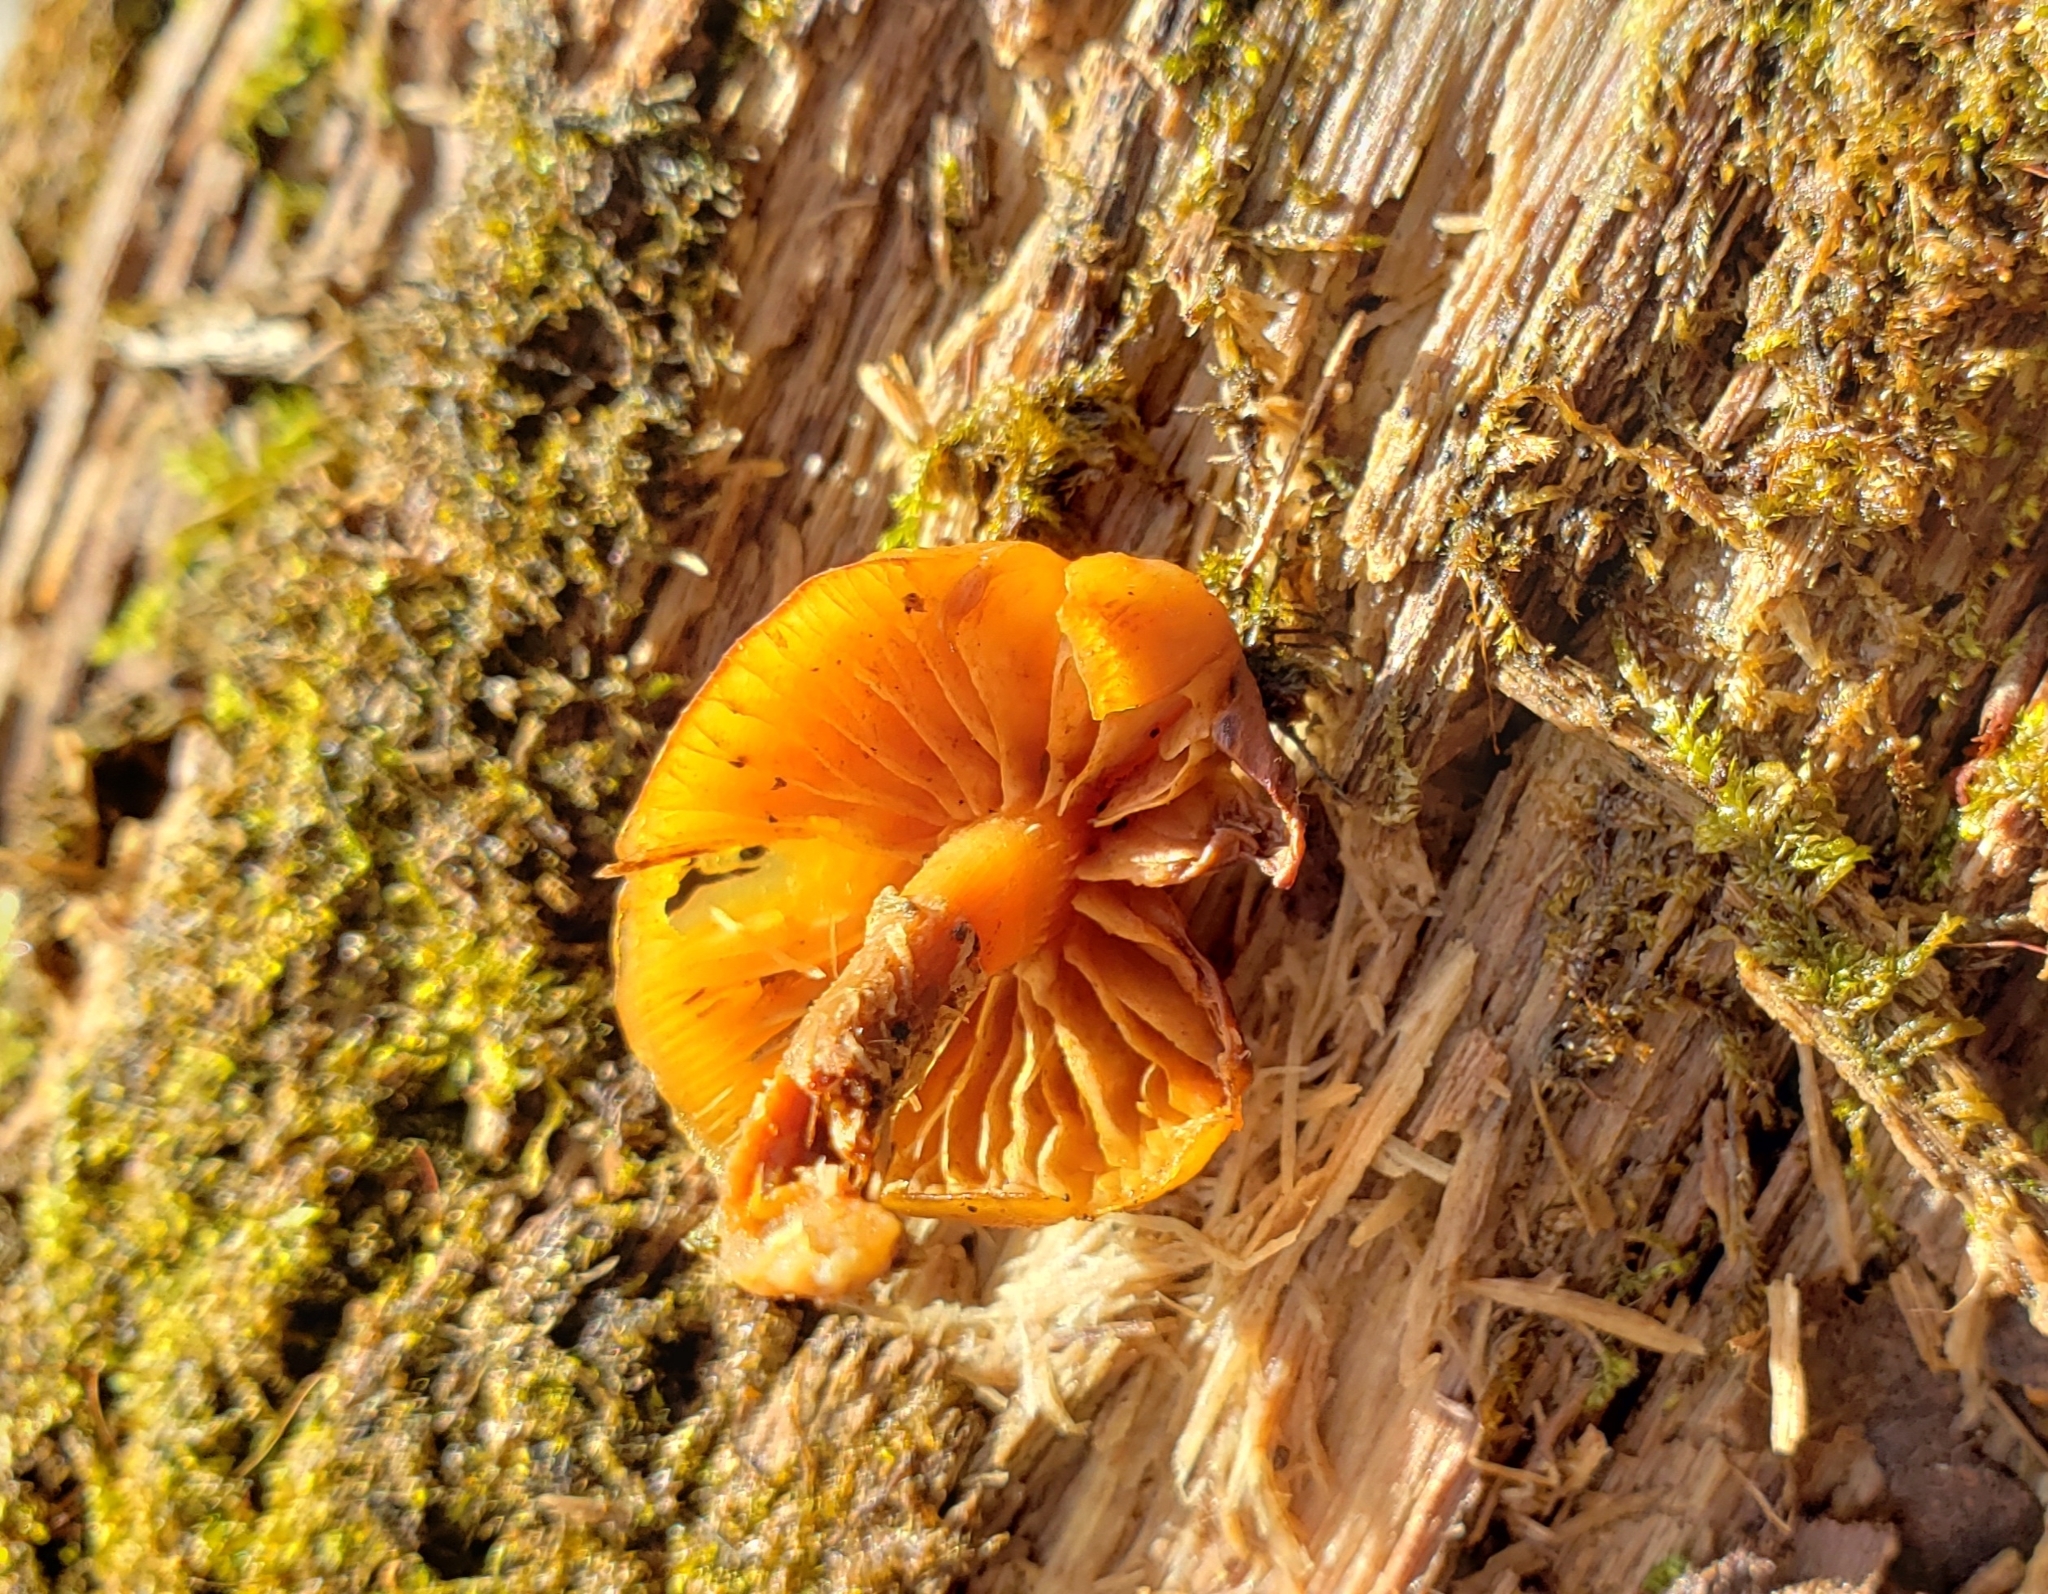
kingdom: Fungi
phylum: Basidiomycota
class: Agaricomycetes
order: Agaricales
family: Hymenogastraceae
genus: Galerina
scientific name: Galerina marginata
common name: Funeral bell
